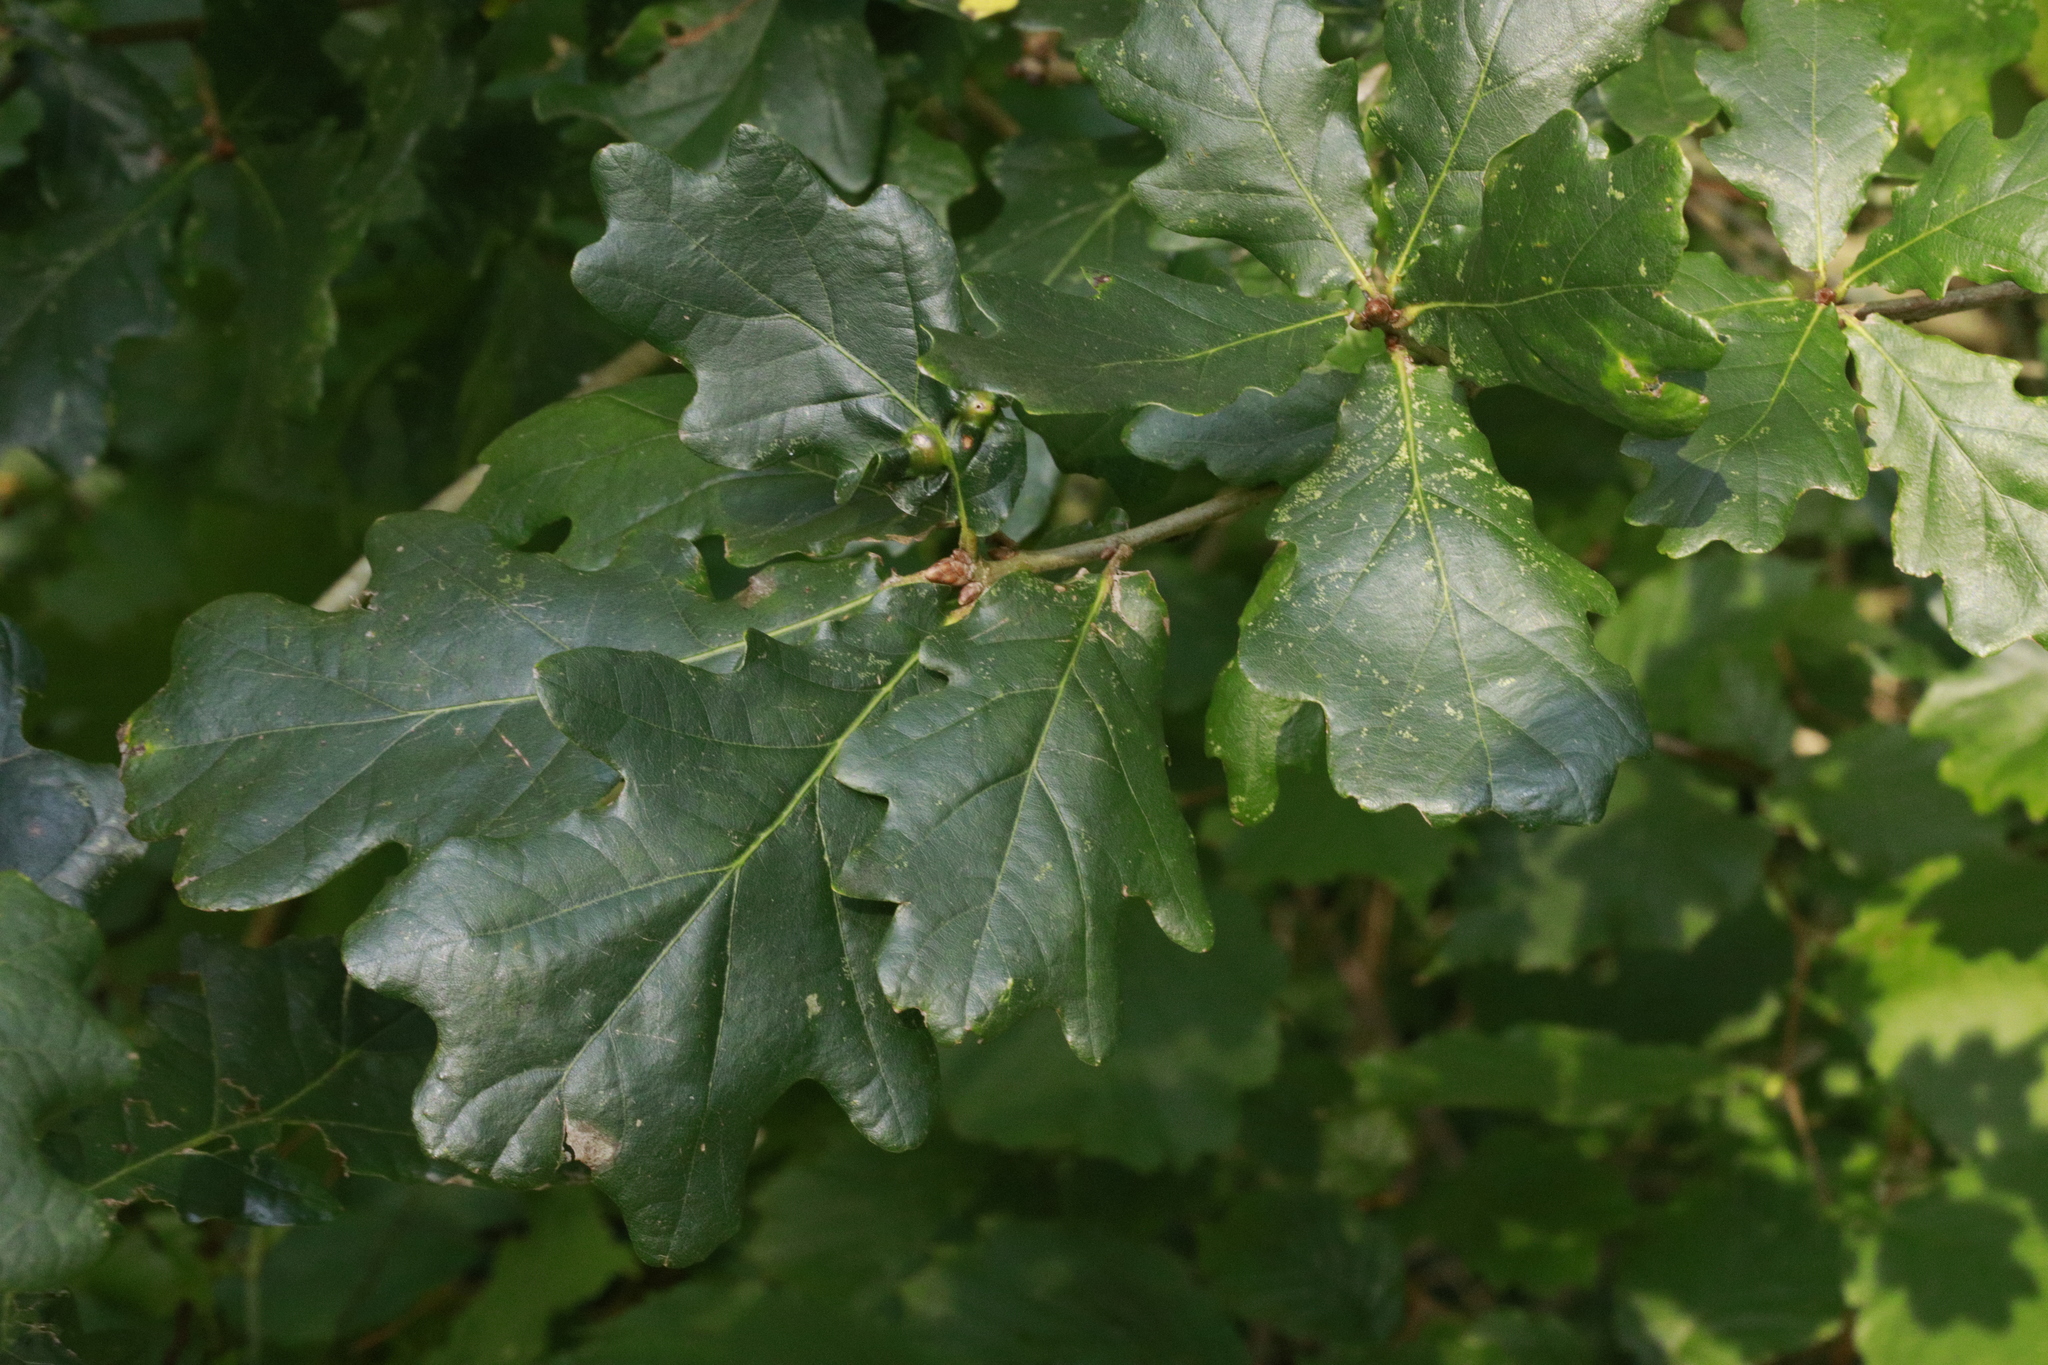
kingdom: Plantae
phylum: Tracheophyta
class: Magnoliopsida
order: Fagales
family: Fagaceae
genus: Quercus
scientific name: Quercus robur
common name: Pedunculate oak
